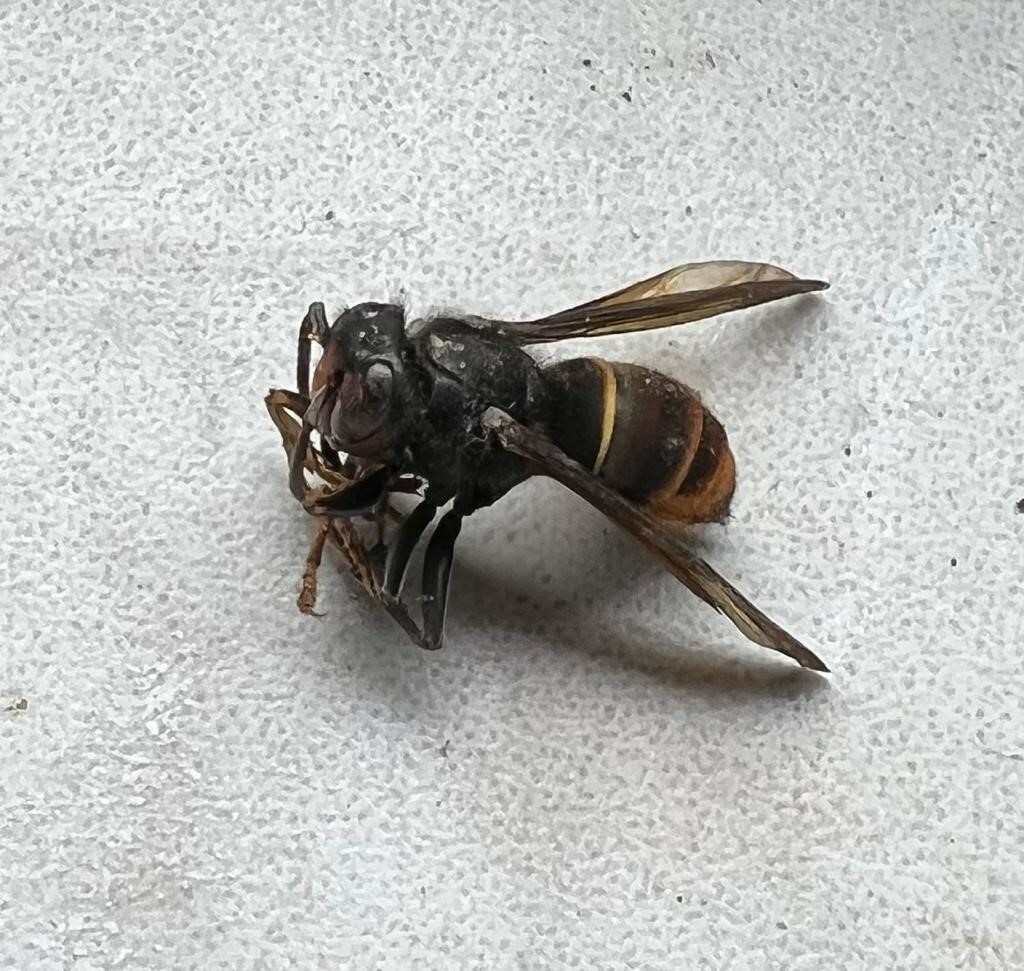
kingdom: Animalia
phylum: Arthropoda
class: Insecta
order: Hymenoptera
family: Vespidae
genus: Vespa
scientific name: Vespa velutina
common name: Asian hornet
